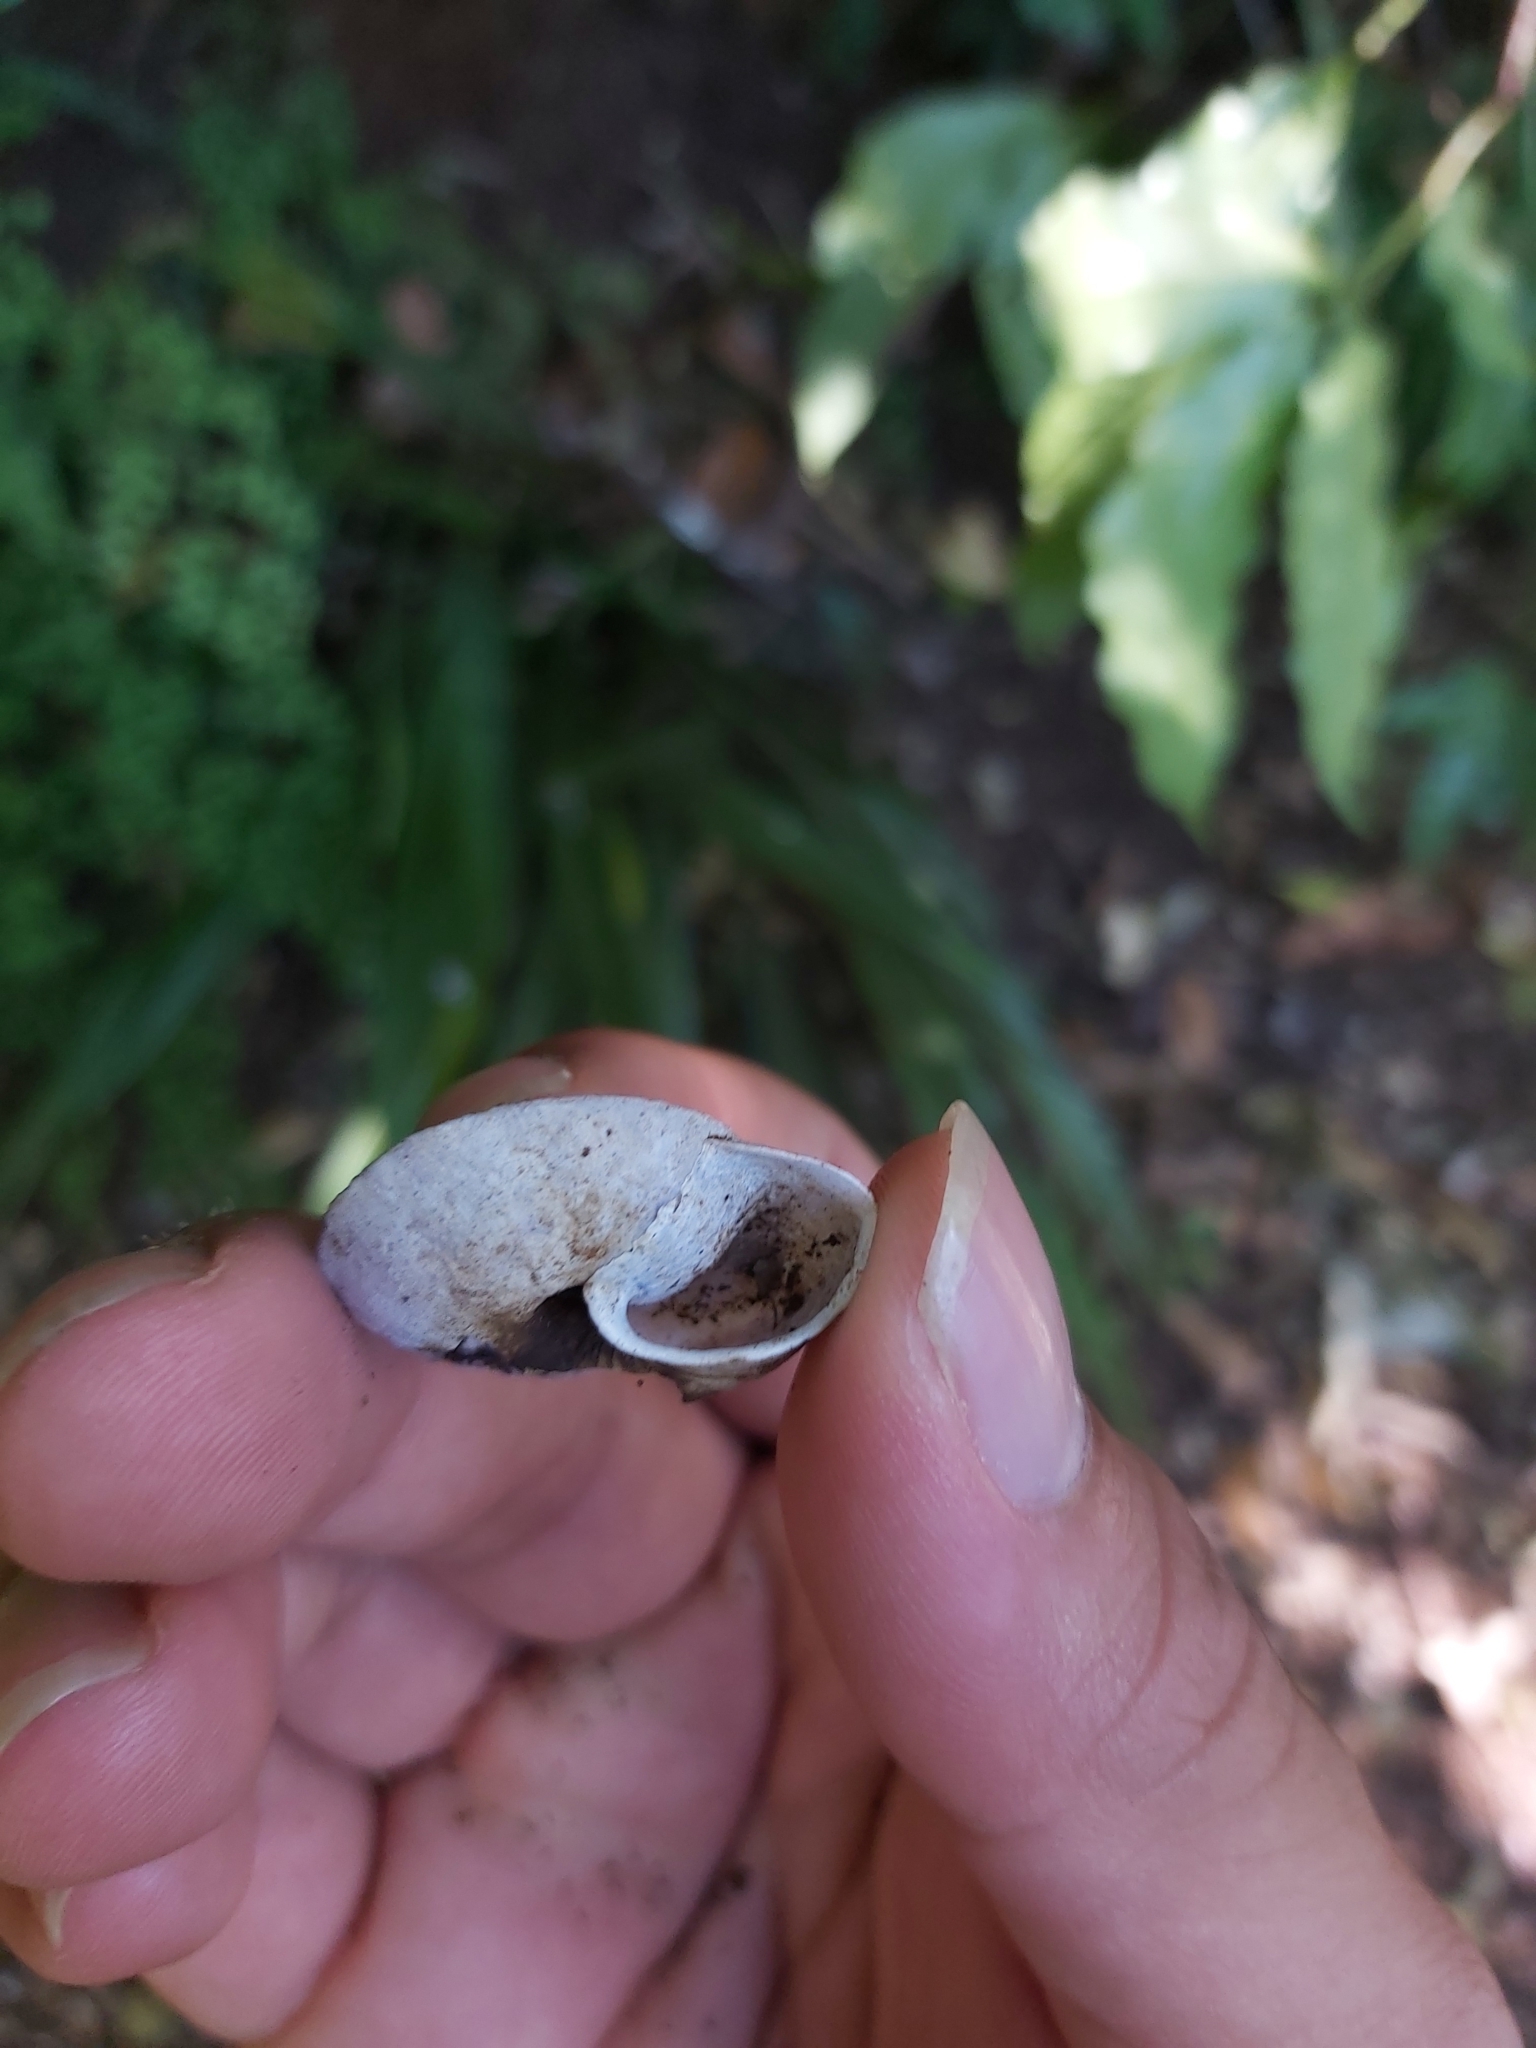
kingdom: Animalia
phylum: Mollusca
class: Gastropoda
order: Stylommatophora
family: Camaenidae
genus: Jacksonena
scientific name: Jacksonena rudis
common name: Atherton tableland keeled snail
